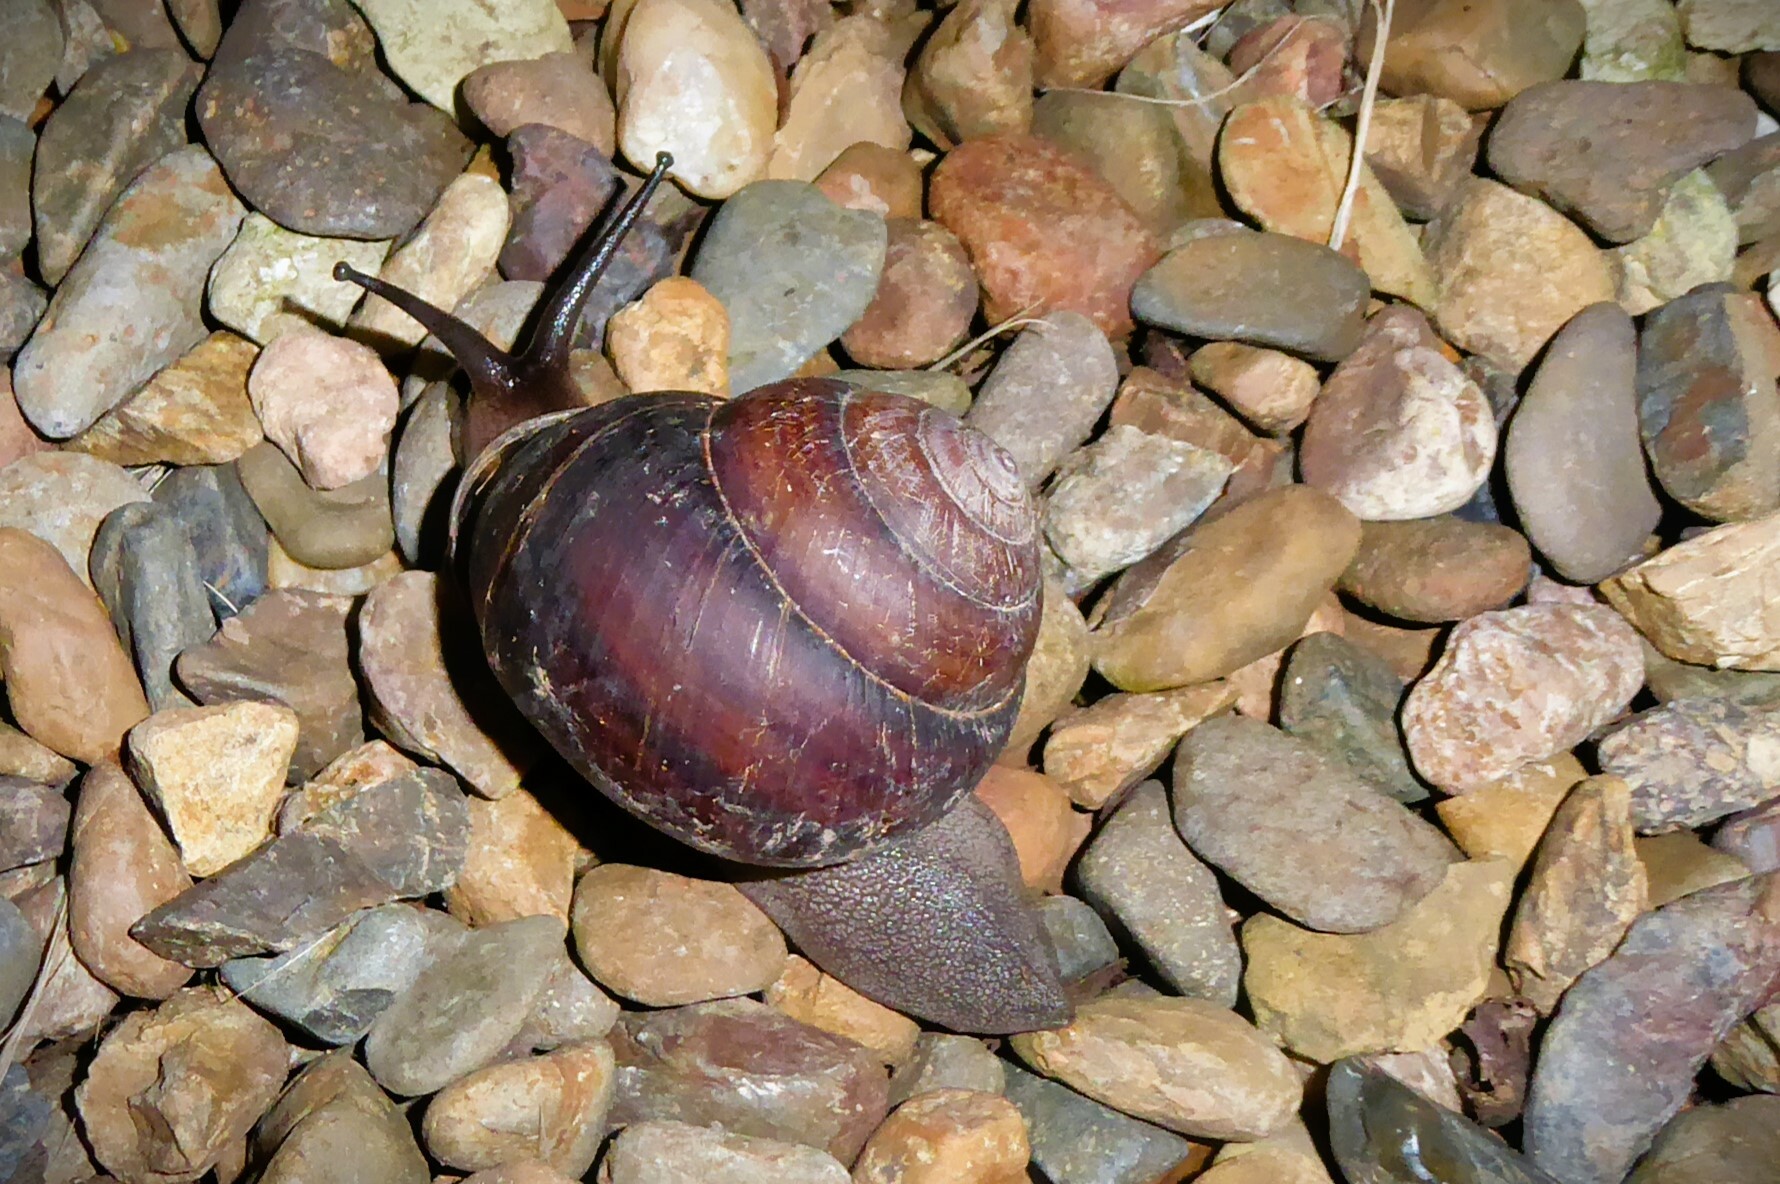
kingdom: Animalia
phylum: Mollusca
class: Gastropoda
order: Stylommatophora
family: Camaenidae
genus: Sphaerospira
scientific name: Sphaerospira fraseri
